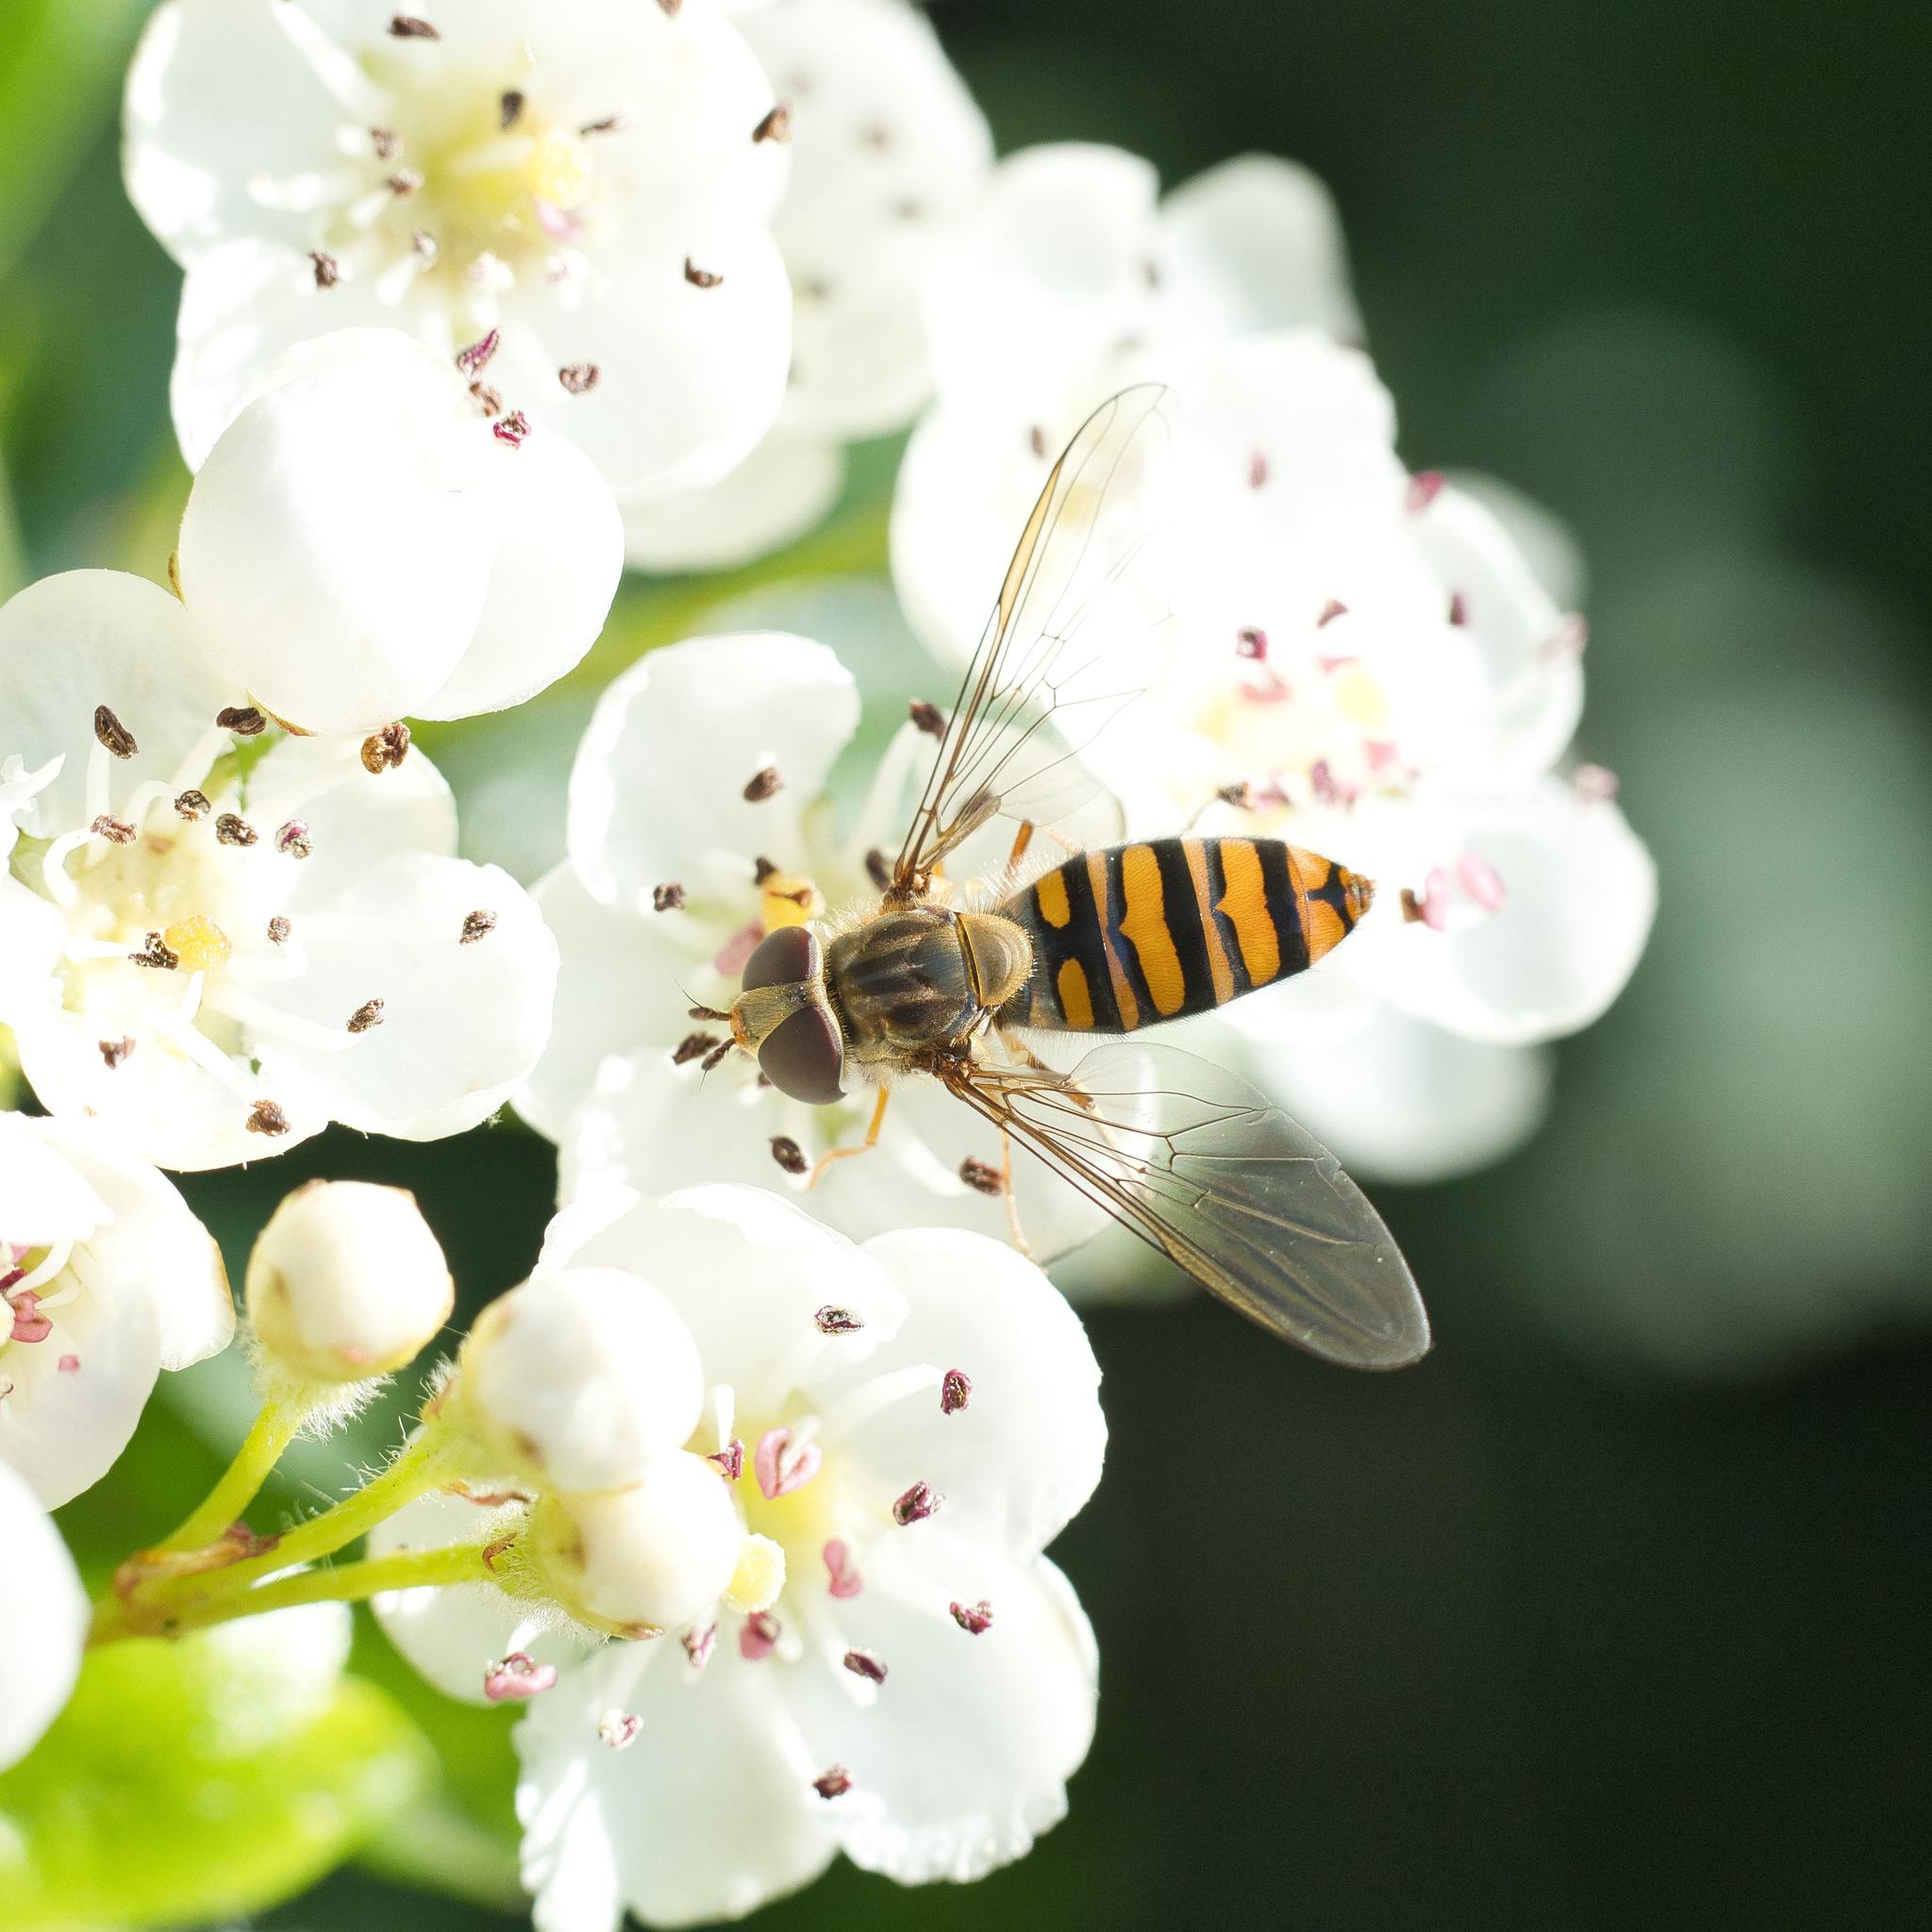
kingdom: Animalia
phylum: Arthropoda
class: Insecta
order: Diptera
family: Syrphidae
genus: Episyrphus
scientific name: Episyrphus balteatus
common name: Marmalade hoverfly
